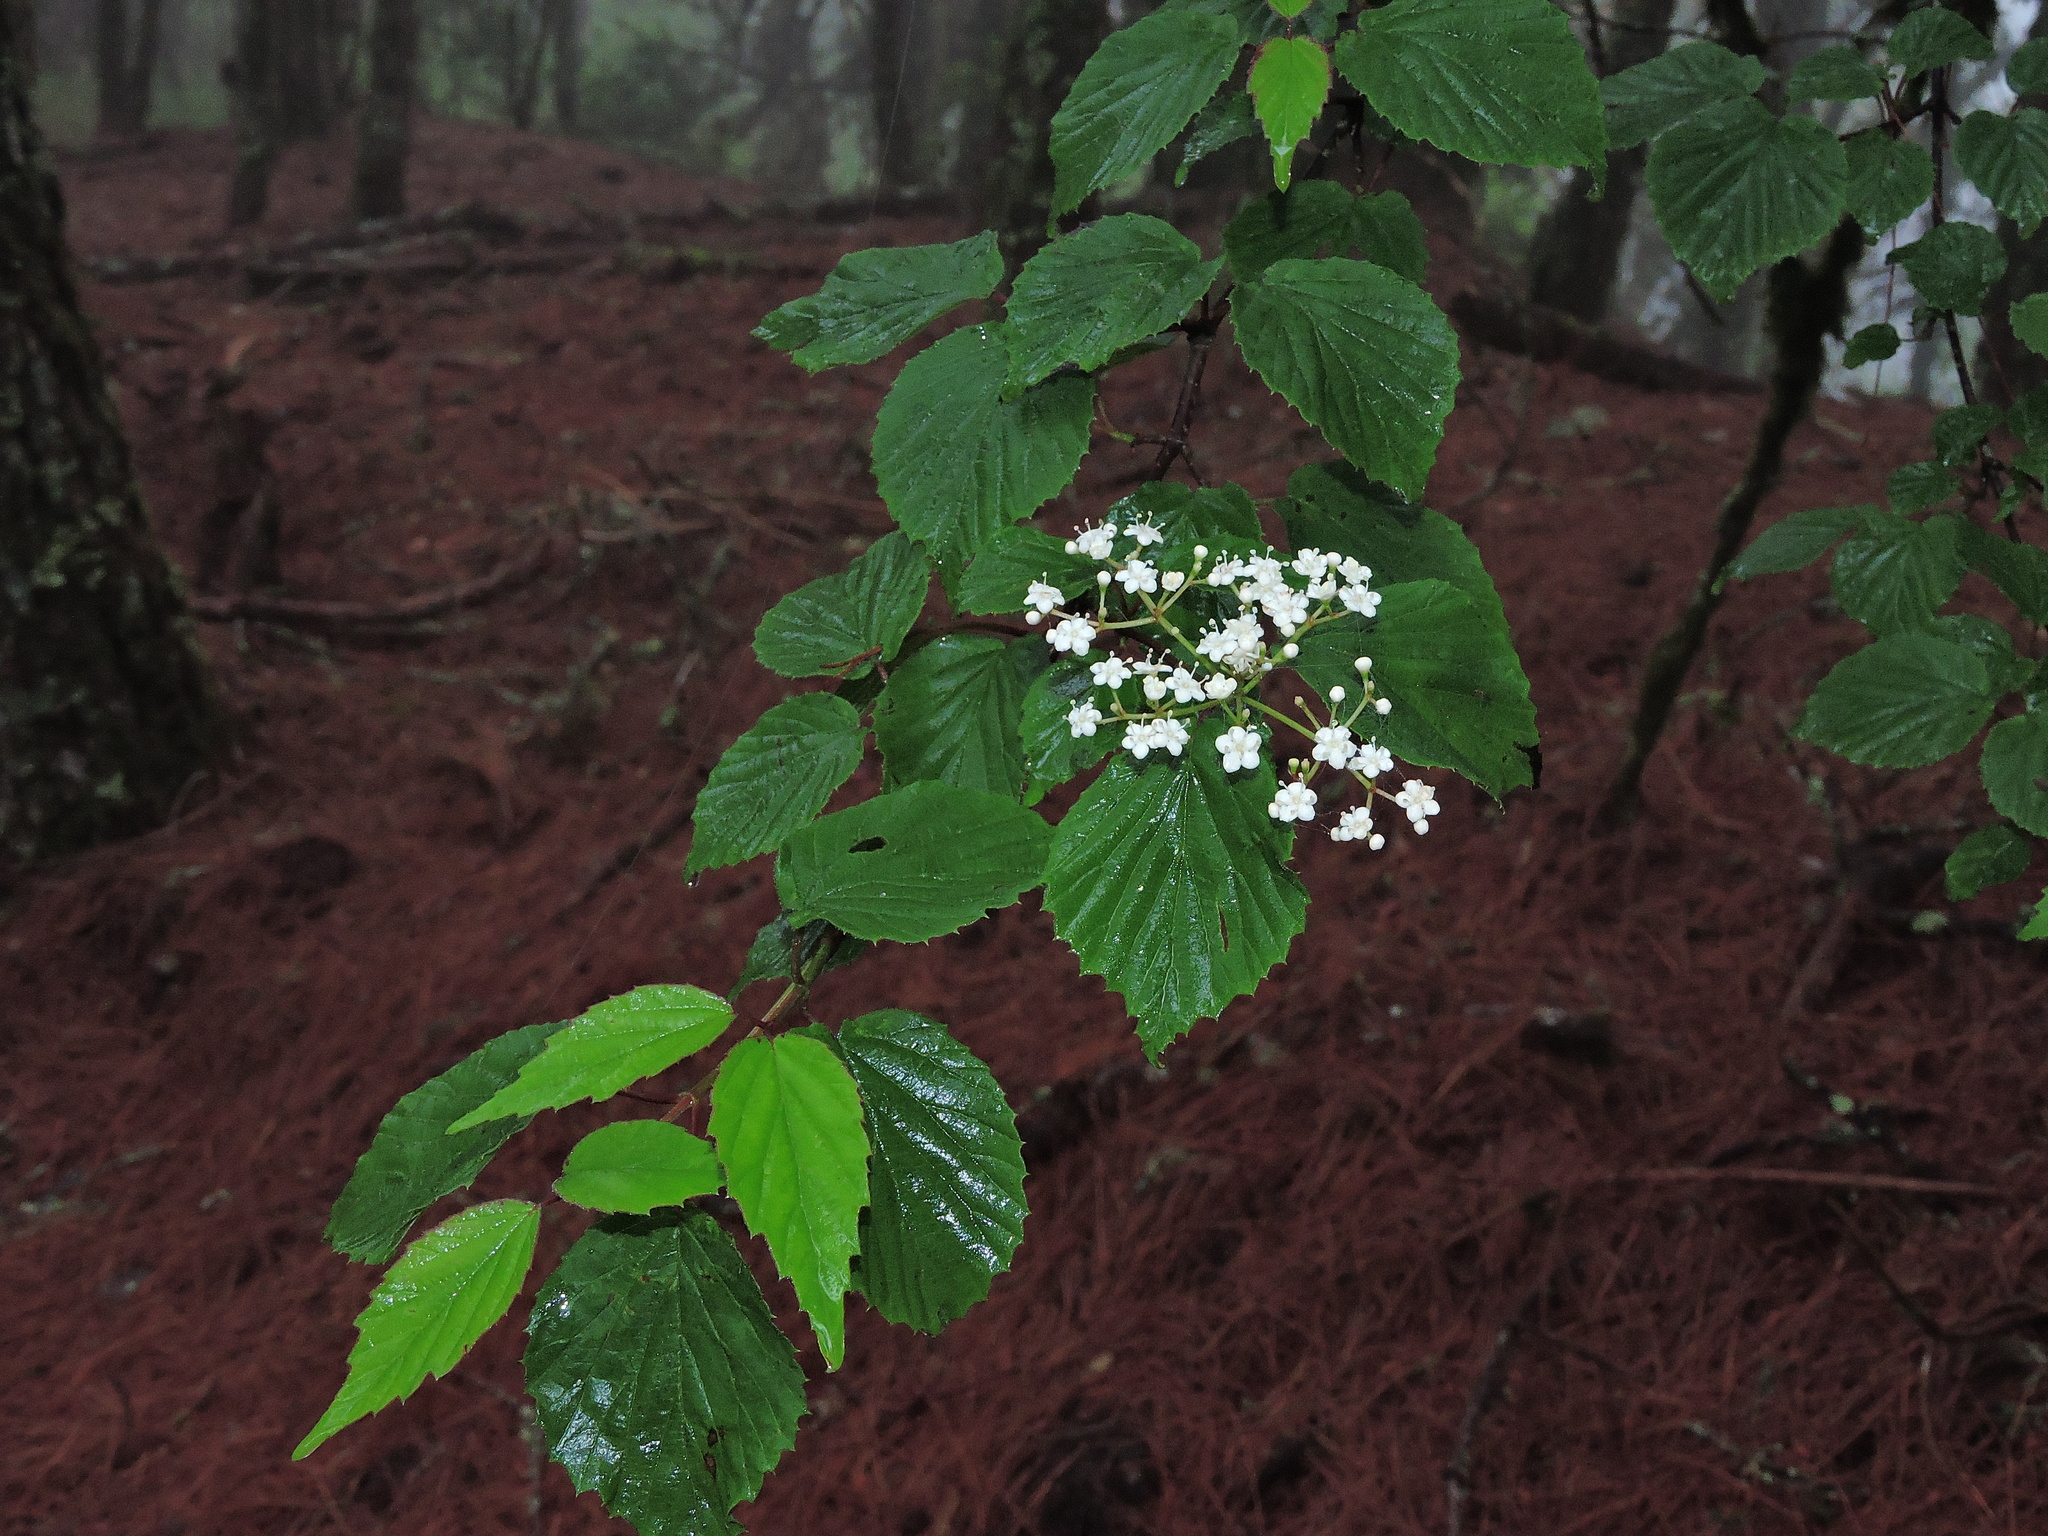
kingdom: Plantae
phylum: Tracheophyta
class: Magnoliopsida
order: Dipsacales
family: Viburnaceae
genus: Viburnum
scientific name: Viburnum betulifolium
